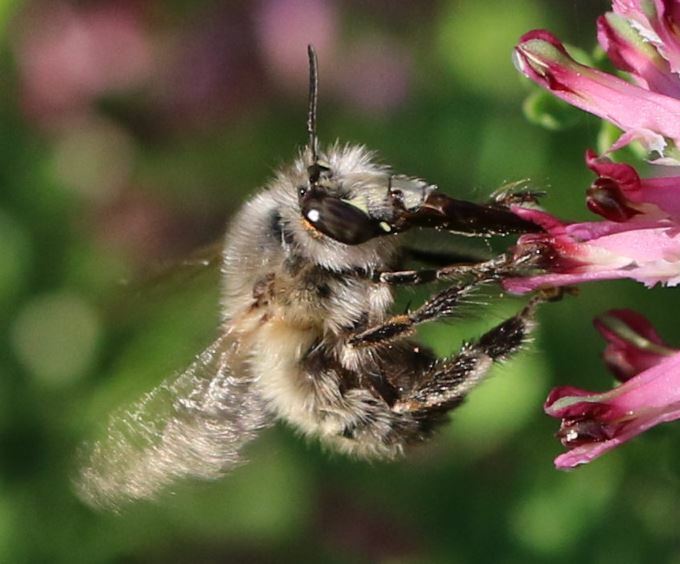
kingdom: Animalia
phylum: Arthropoda
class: Insecta
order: Hymenoptera
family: Apidae
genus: Anthophora
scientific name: Anthophora plumipes
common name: Hairy-footed flower bee
